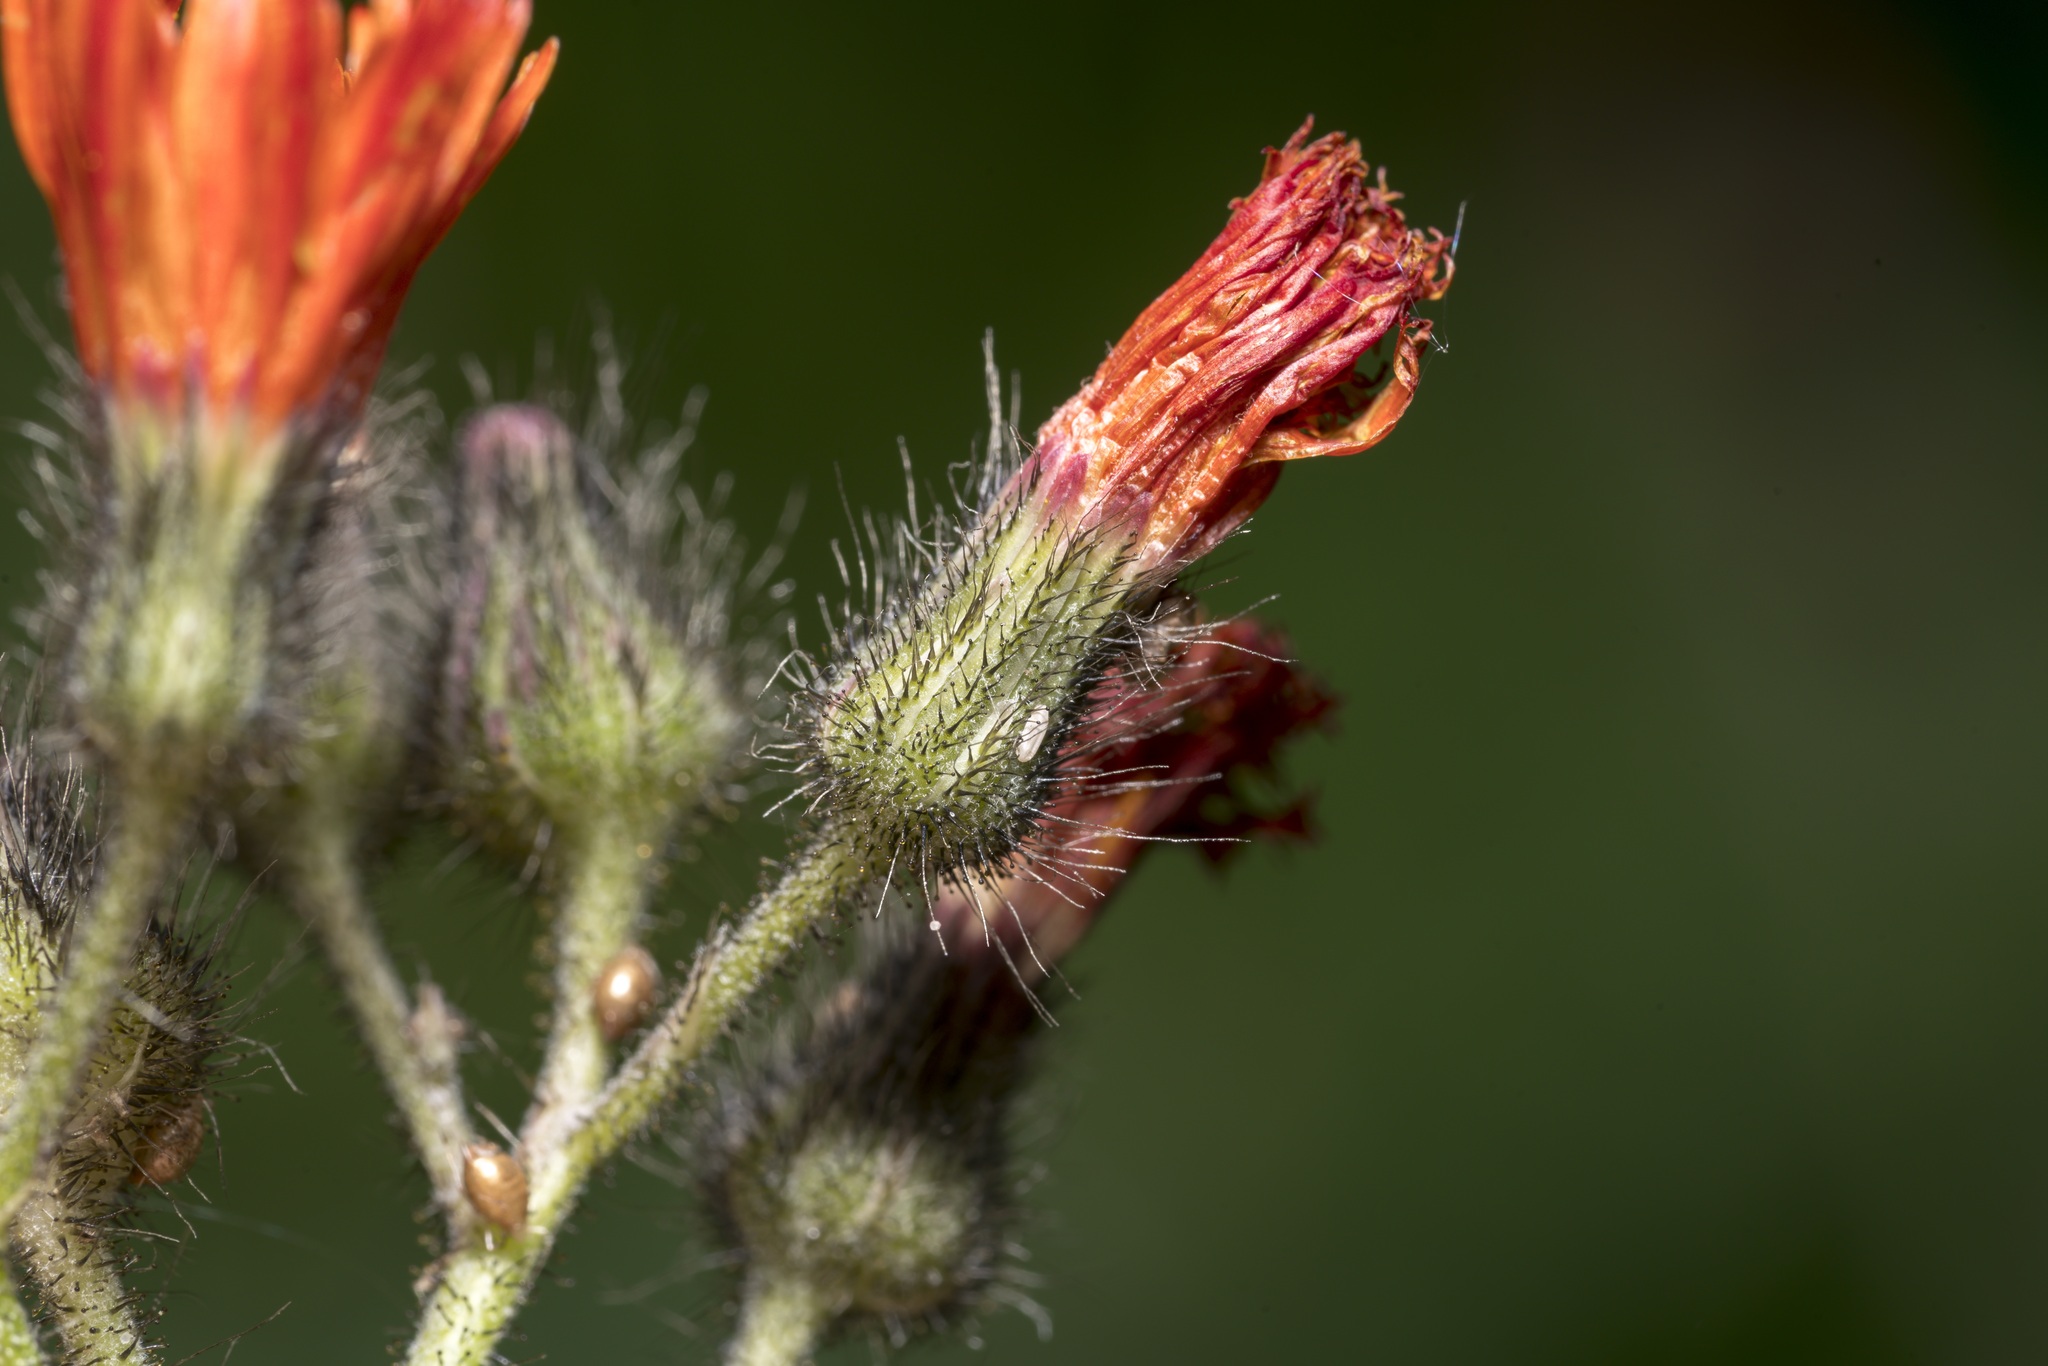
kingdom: Plantae
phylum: Tracheophyta
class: Magnoliopsida
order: Asterales
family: Asteraceae
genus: Pilosella
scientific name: Pilosella aurantiaca
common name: Fox-and-cubs
